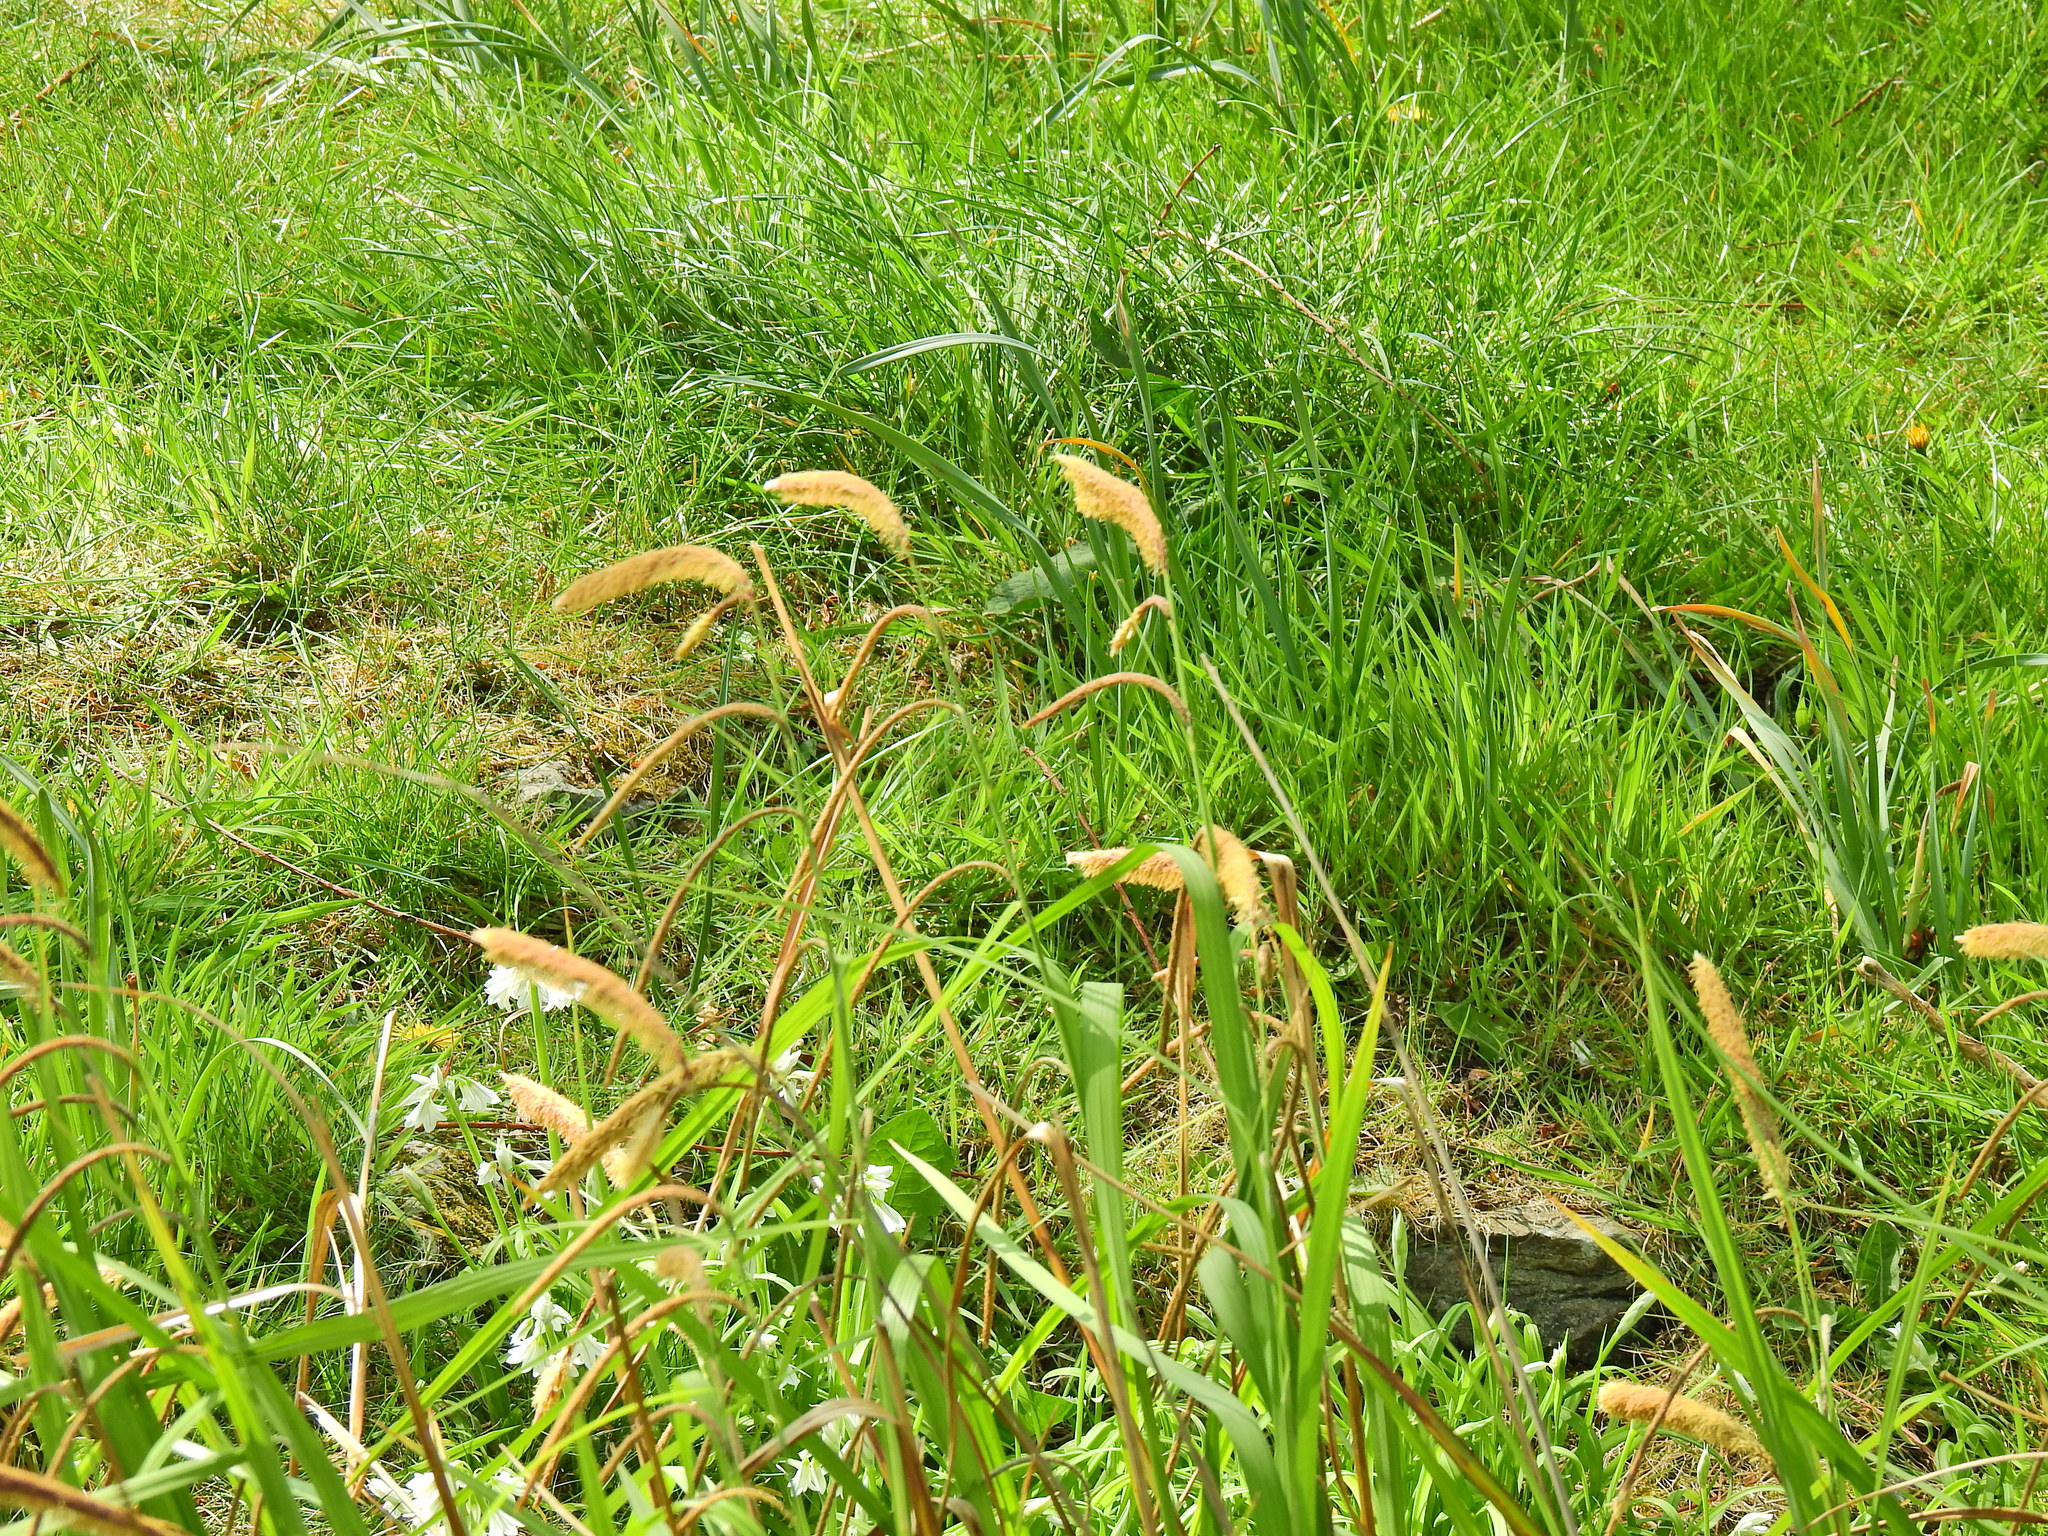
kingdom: Plantae
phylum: Tracheophyta
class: Liliopsida
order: Poales
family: Cyperaceae
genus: Carex
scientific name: Carex pendula
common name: Pendulous sedge
